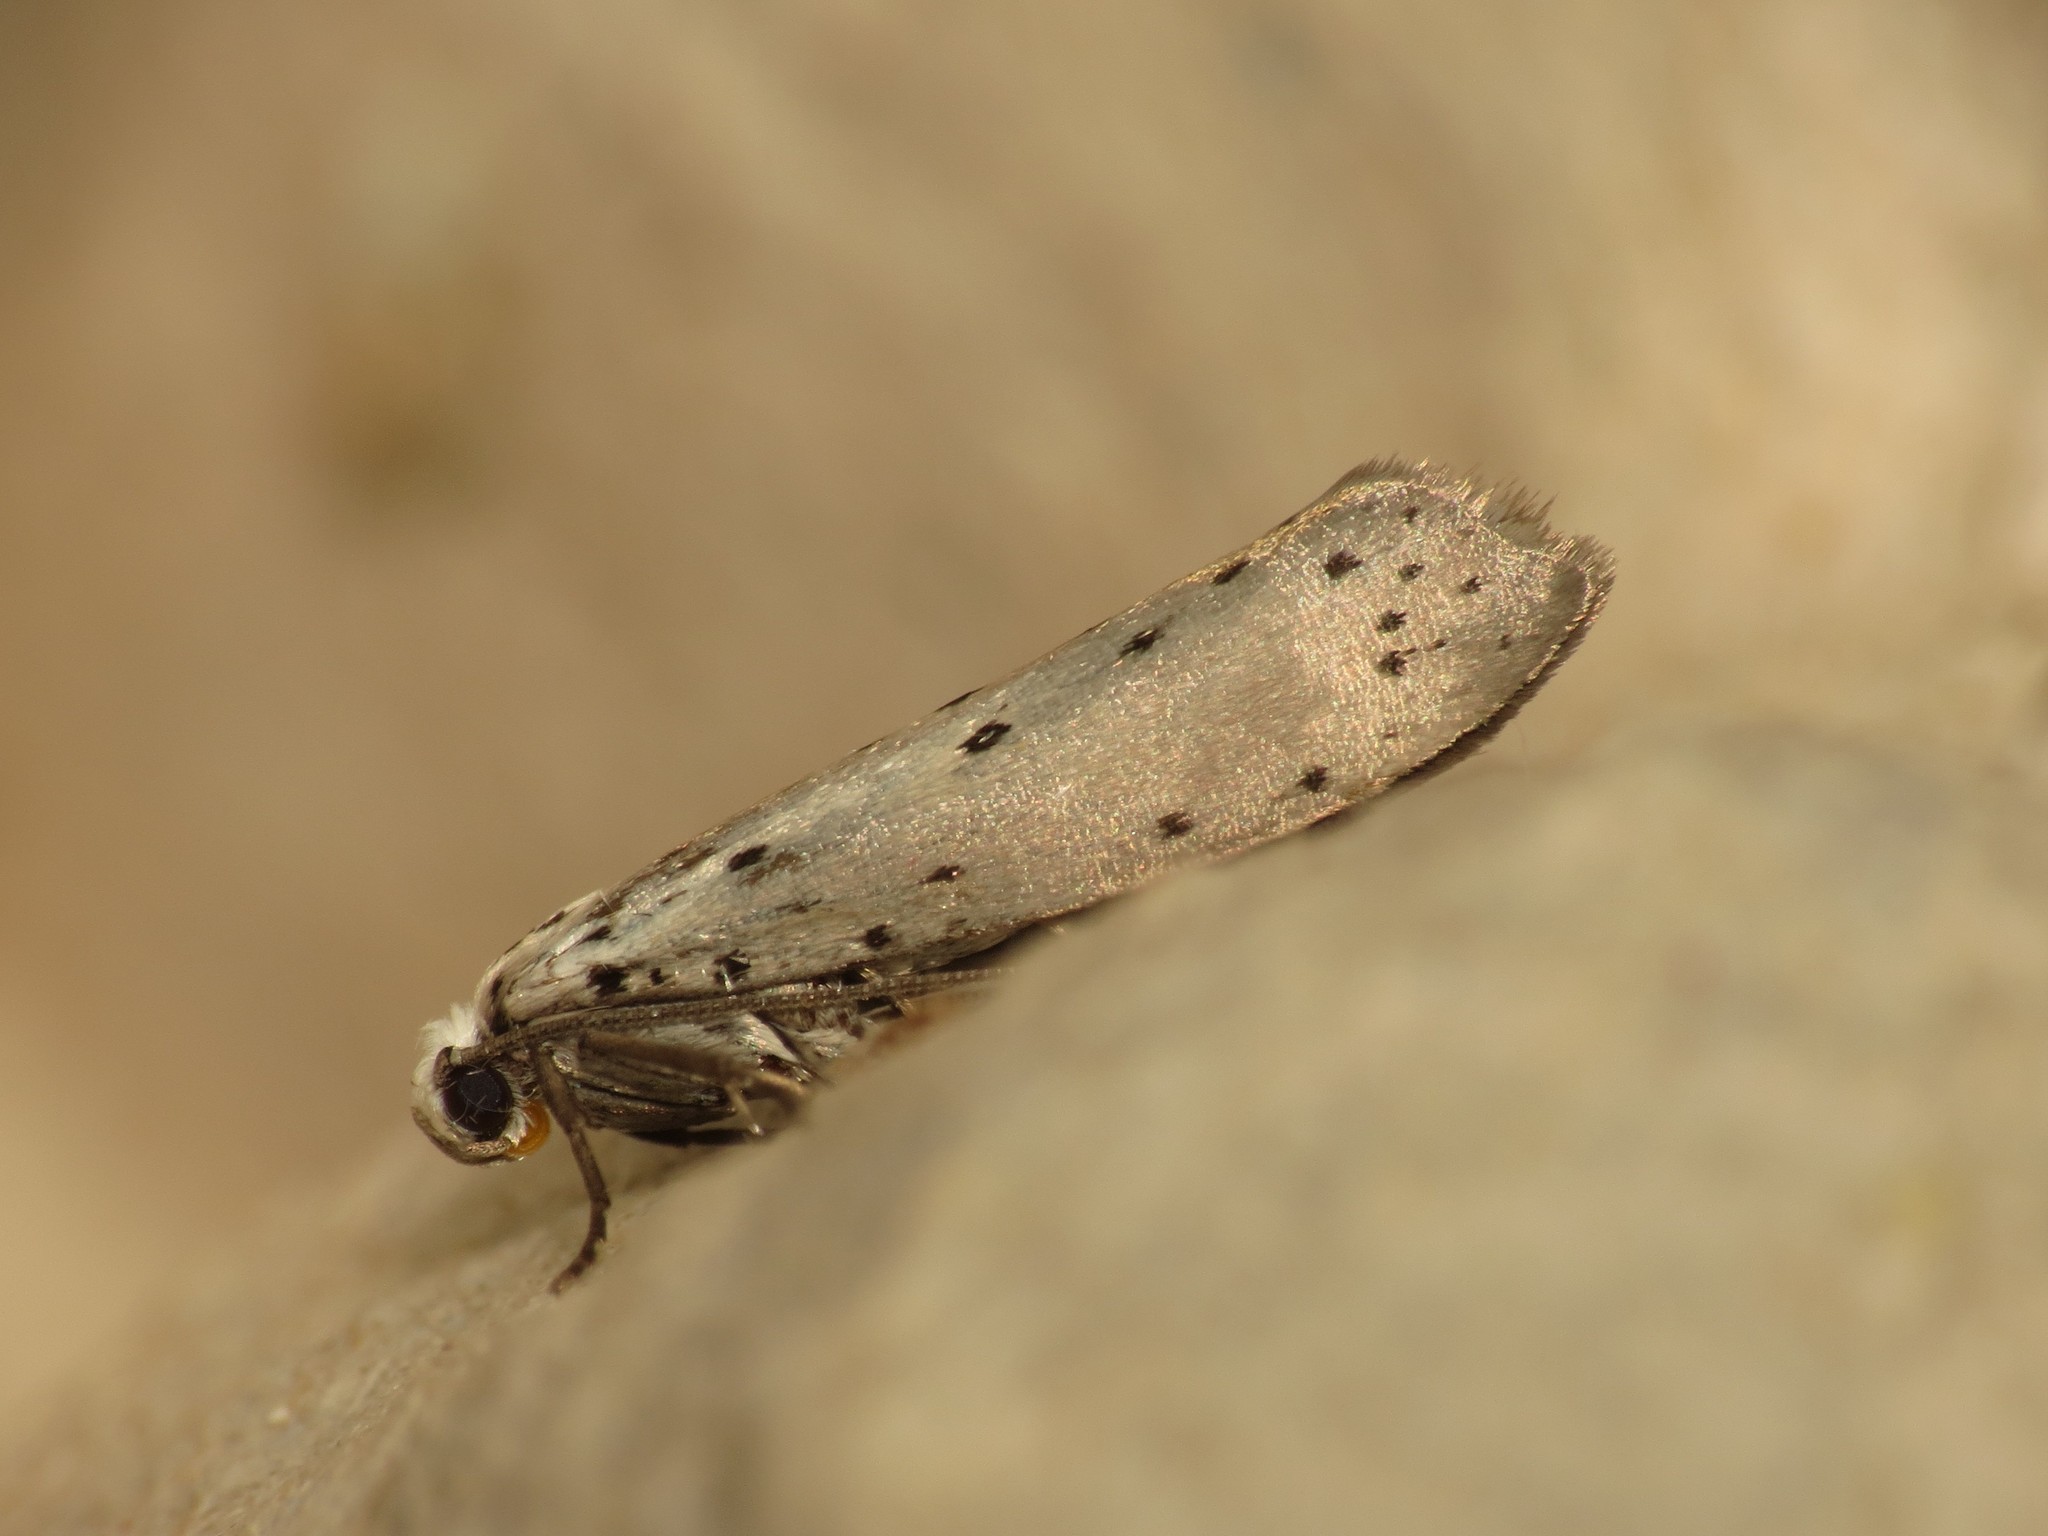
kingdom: Animalia
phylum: Arthropoda
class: Insecta
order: Lepidoptera
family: Yponomeutidae
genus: Yponomeuta
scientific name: Yponomeuta padella
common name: Orchard ermine
